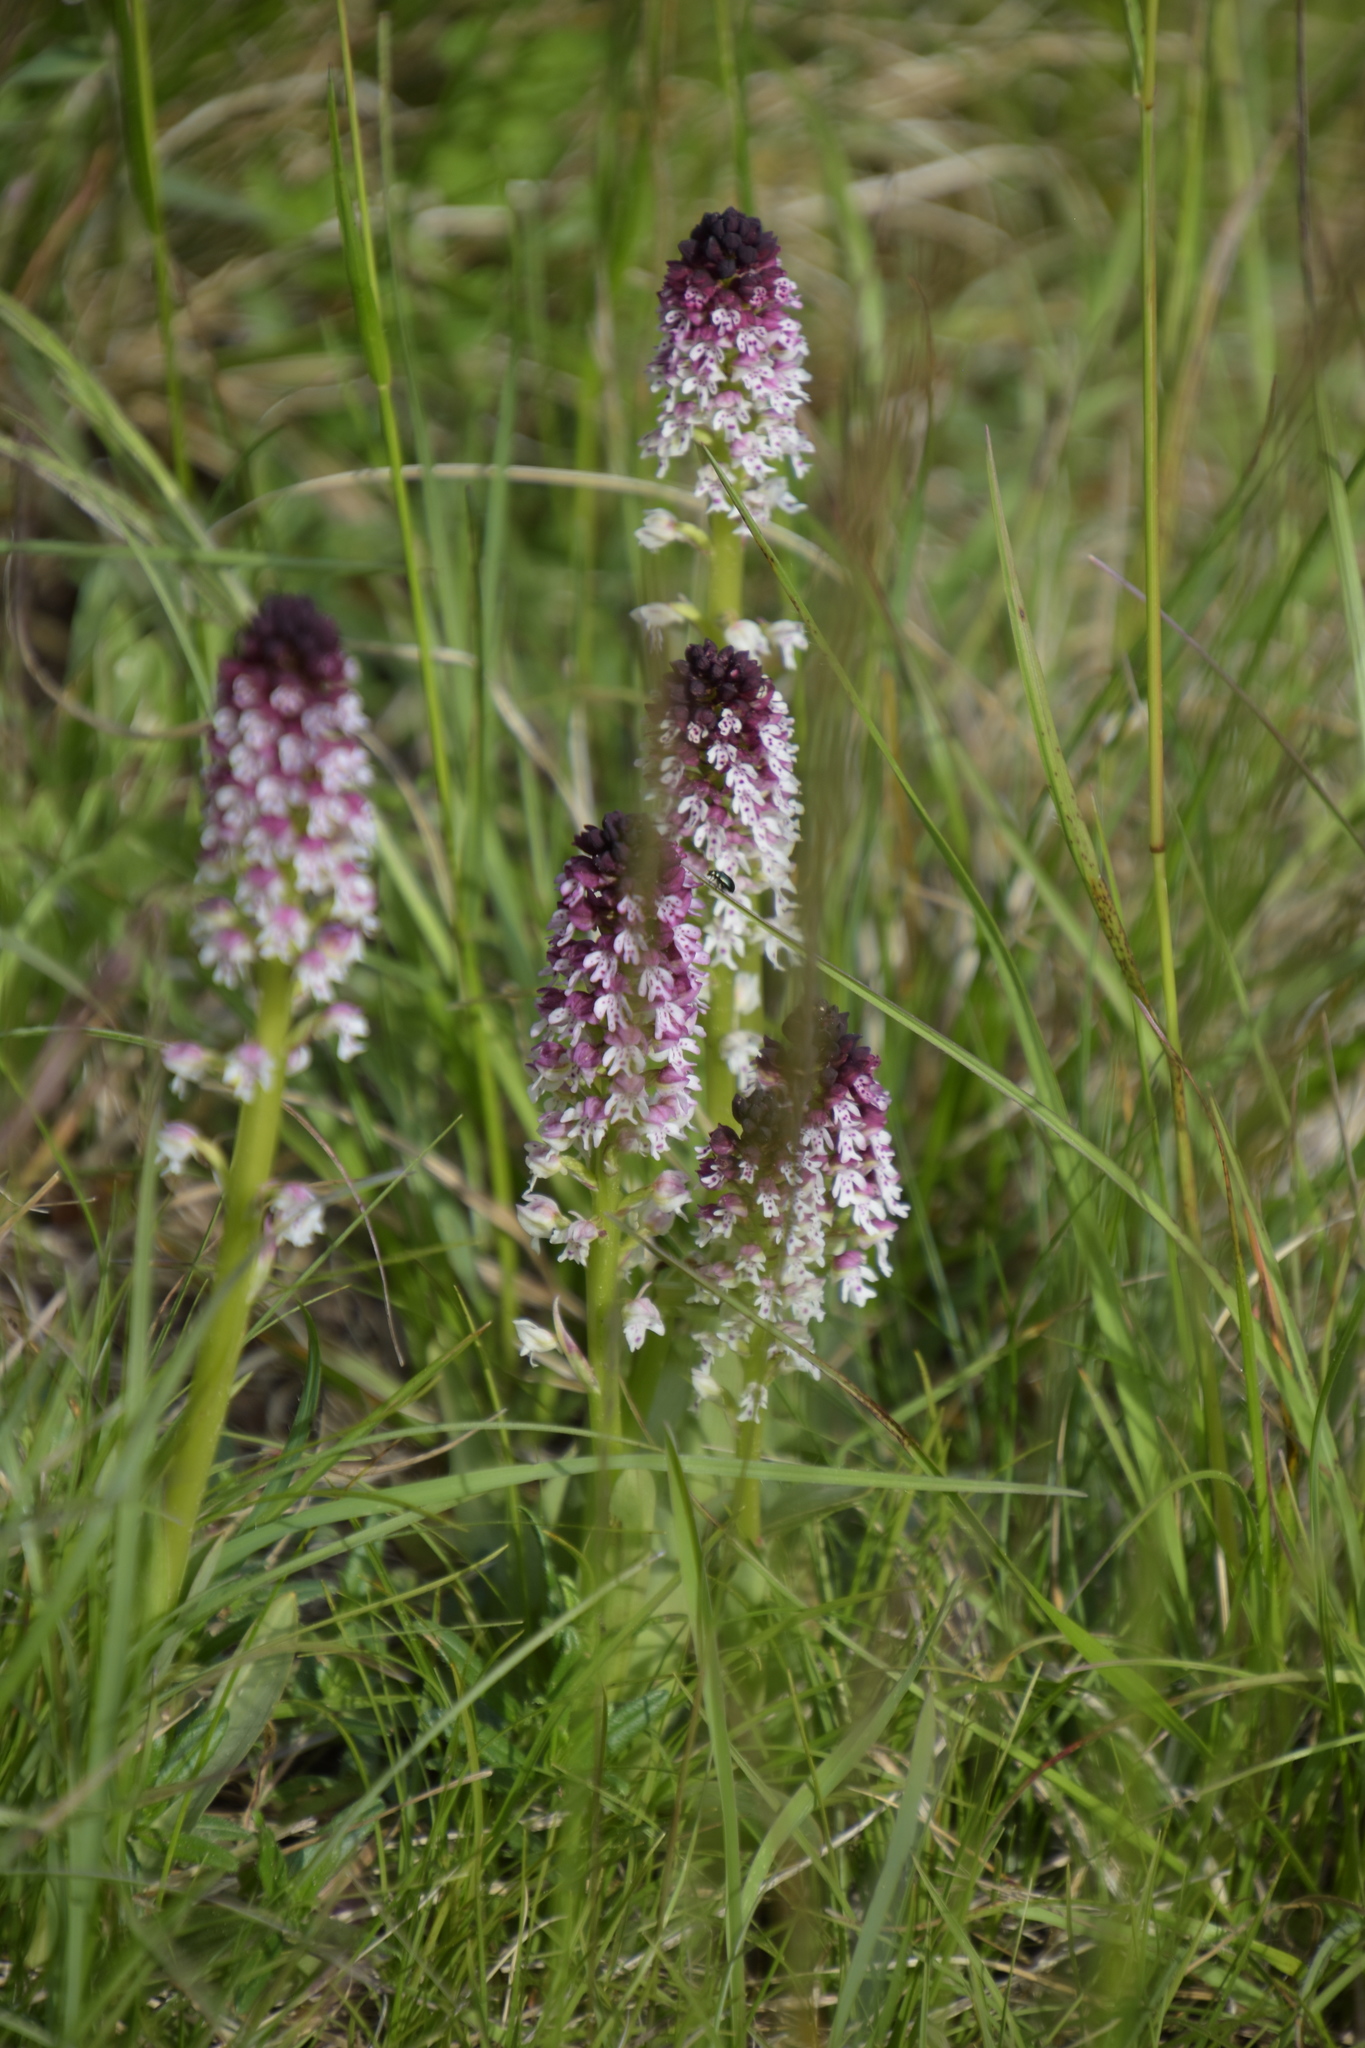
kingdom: Plantae
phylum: Tracheophyta
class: Liliopsida
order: Asparagales
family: Orchidaceae
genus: Neotinea
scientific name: Neotinea ustulata
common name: Burnt orchid
